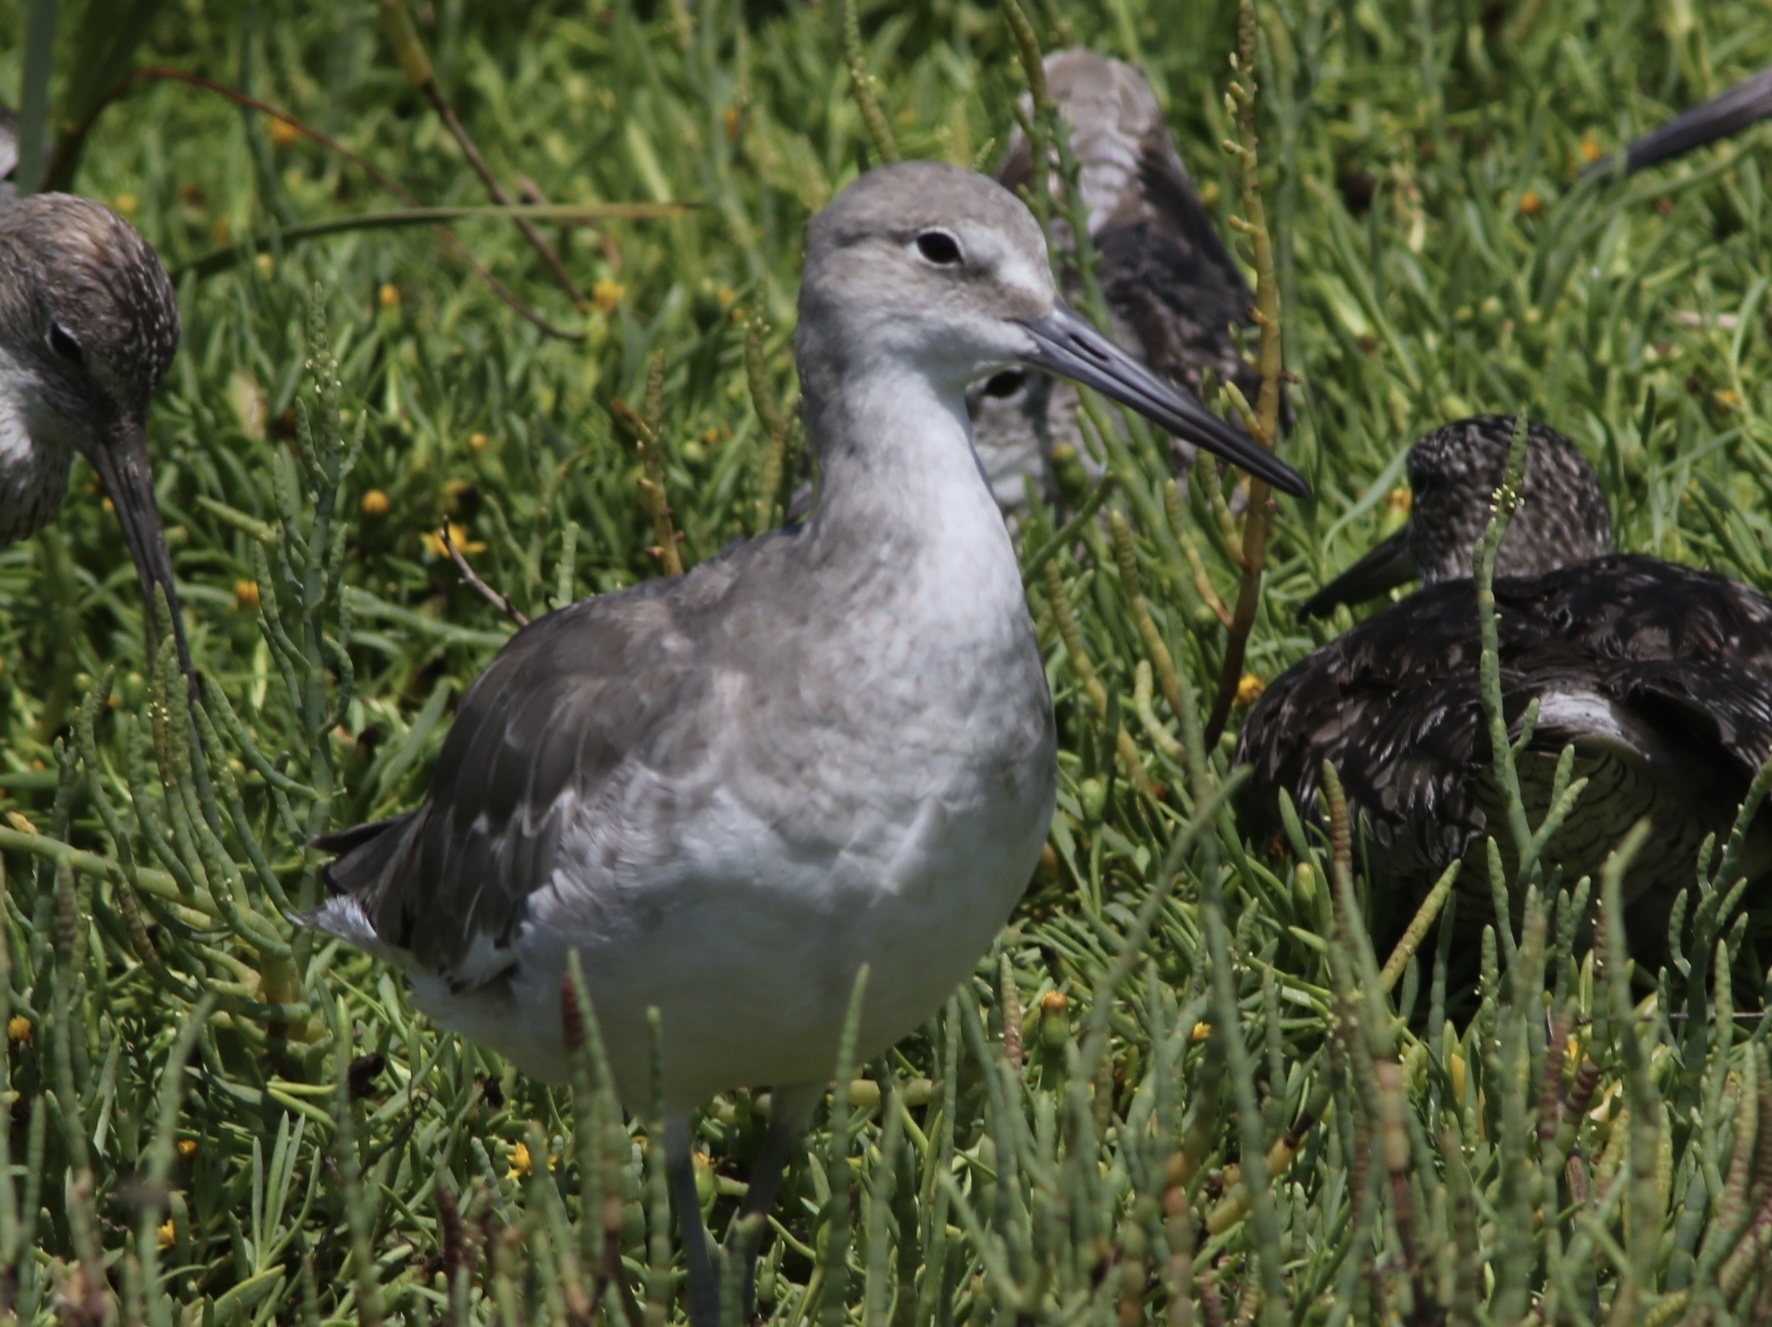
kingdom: Animalia
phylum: Chordata
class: Aves
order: Charadriiformes
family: Scolopacidae
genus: Tringa
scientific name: Tringa semipalmata
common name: Willet
